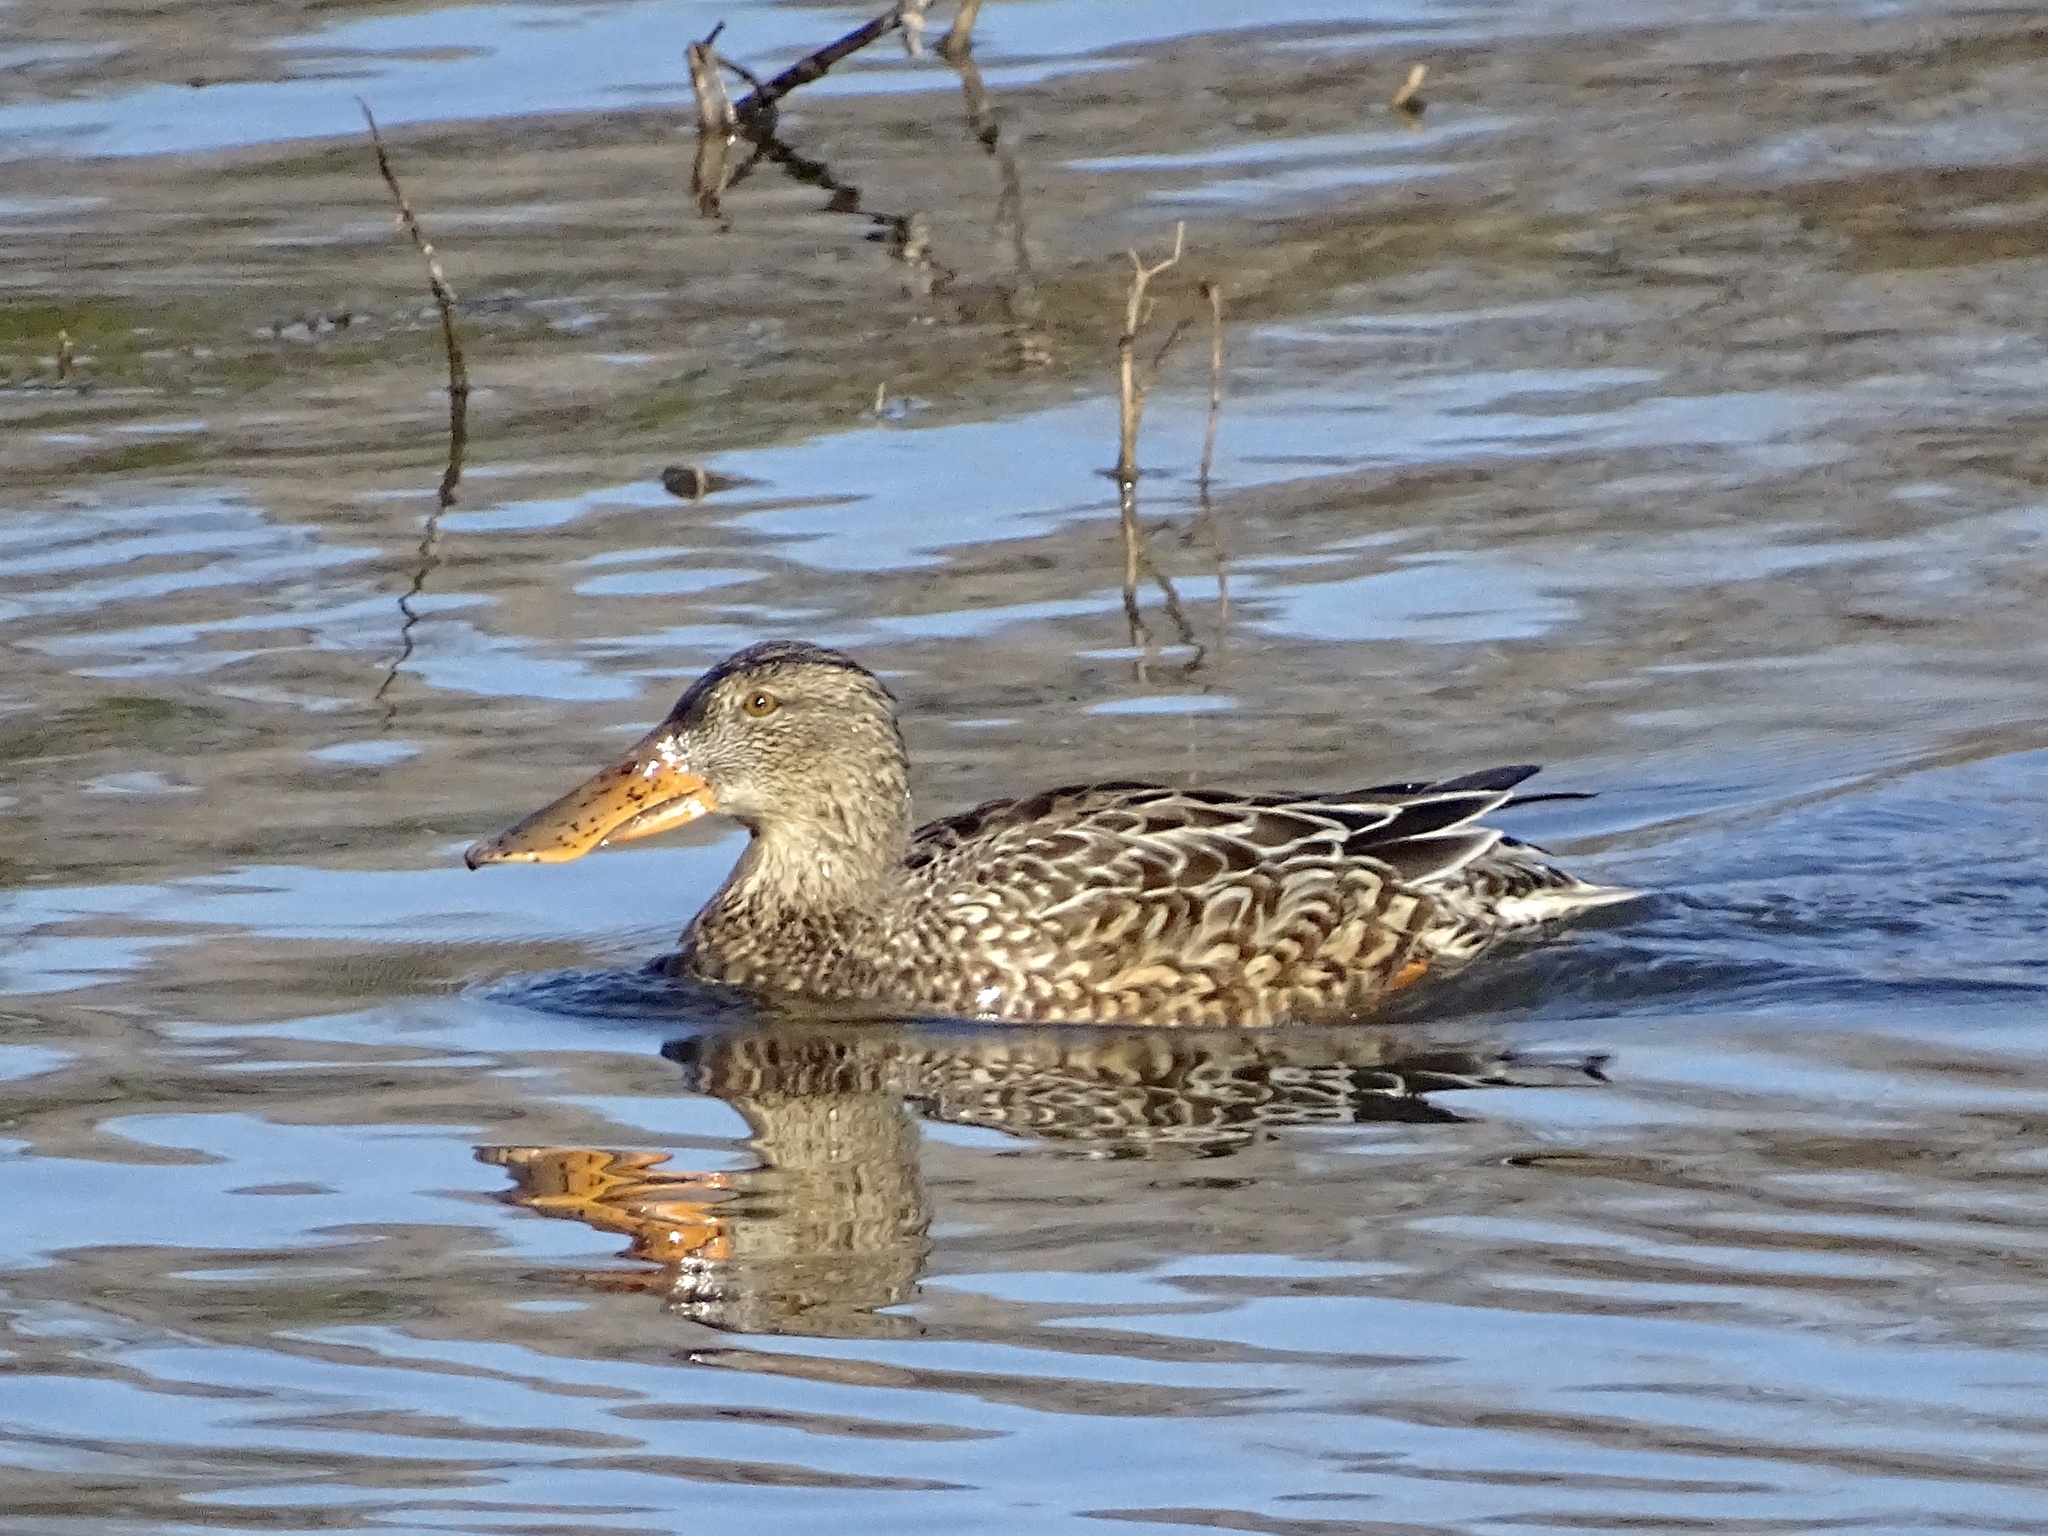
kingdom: Animalia
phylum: Chordata
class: Aves
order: Anseriformes
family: Anatidae
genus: Spatula
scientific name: Spatula clypeata
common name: Northern shoveler
